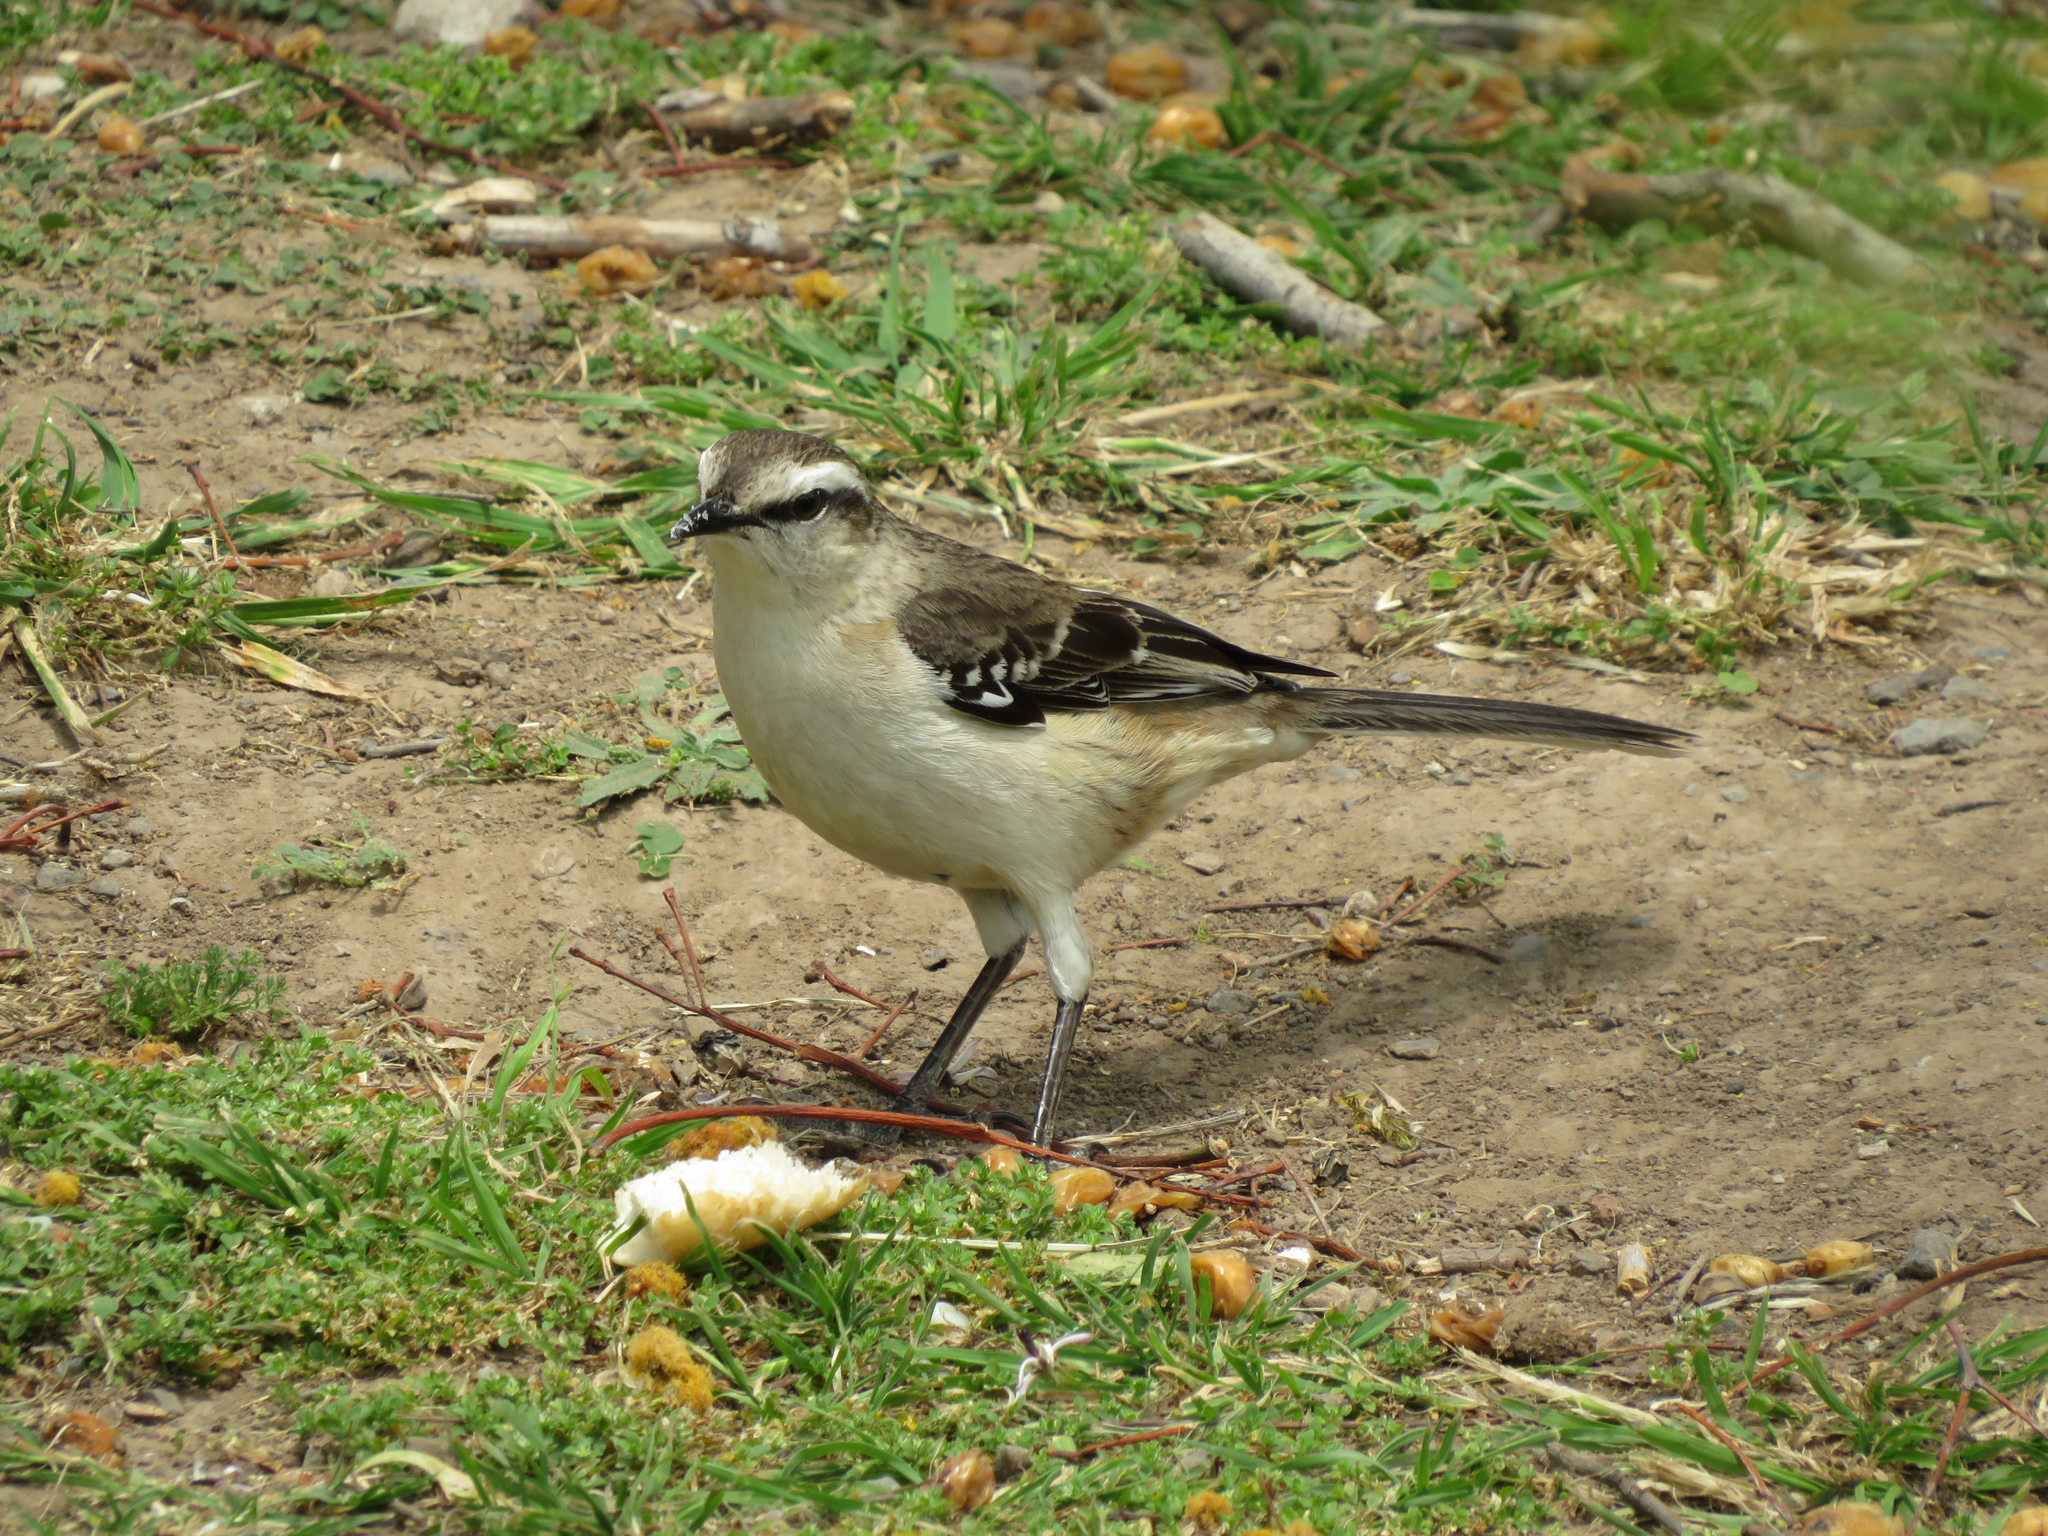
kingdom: Animalia
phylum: Chordata
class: Aves
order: Passeriformes
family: Mimidae
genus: Mimus
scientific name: Mimus saturninus
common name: Chalk-browed mockingbird
